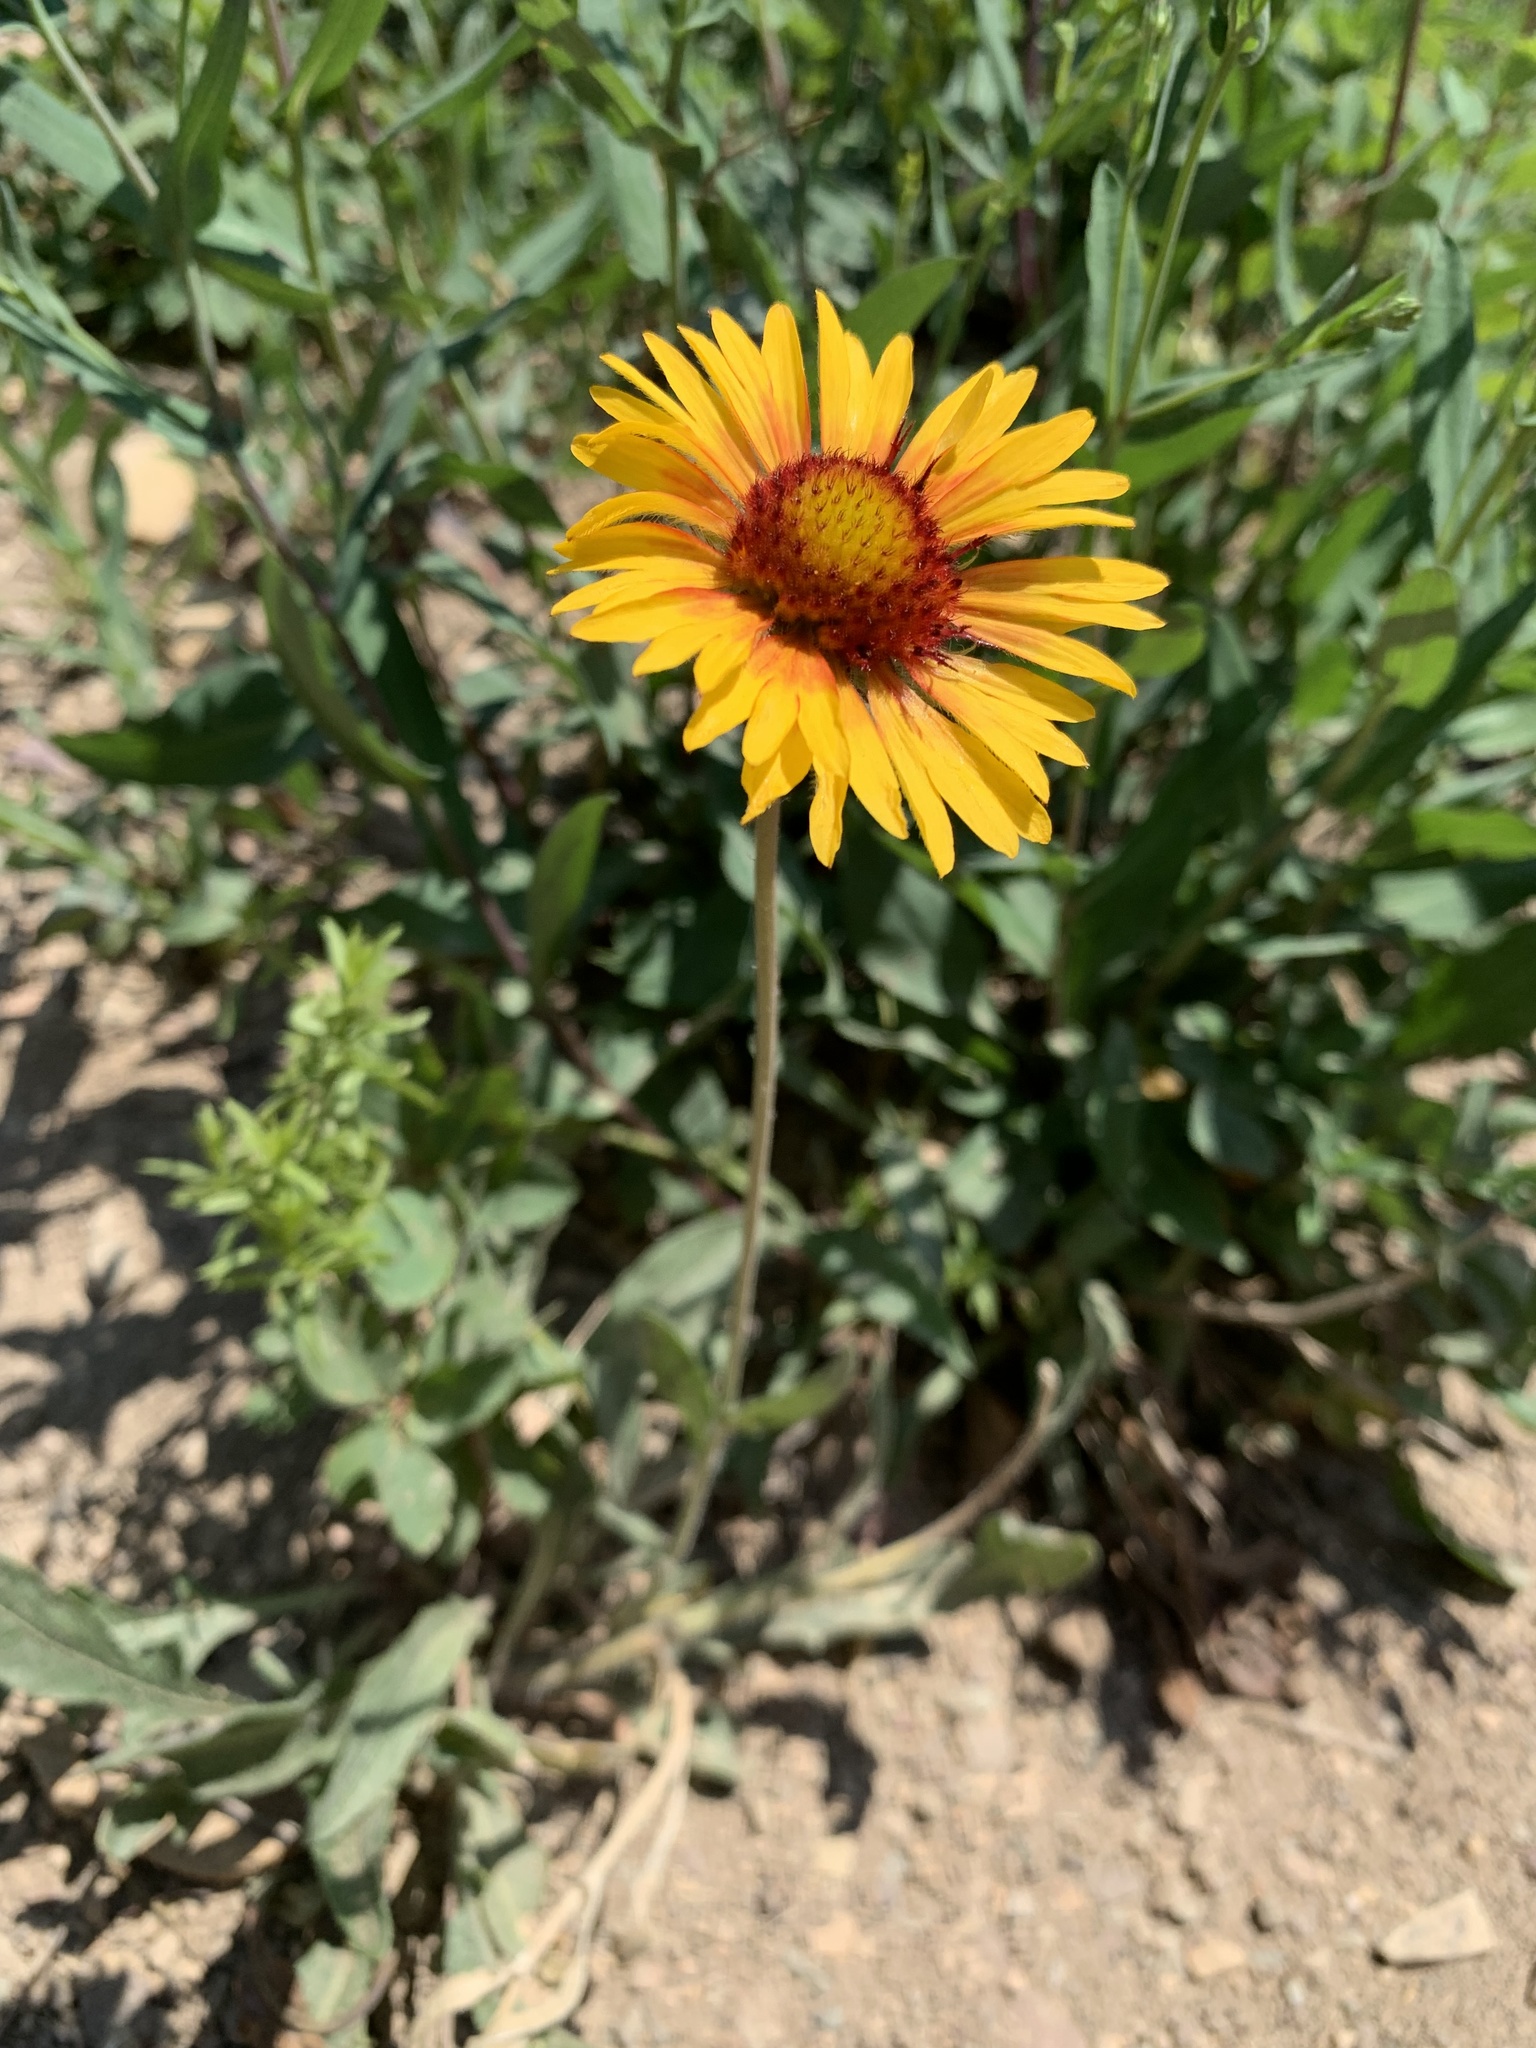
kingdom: Plantae
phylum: Tracheophyta
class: Magnoliopsida
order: Asterales
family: Asteraceae
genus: Gaillardia
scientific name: Gaillardia aristata
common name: Blanket-flower
